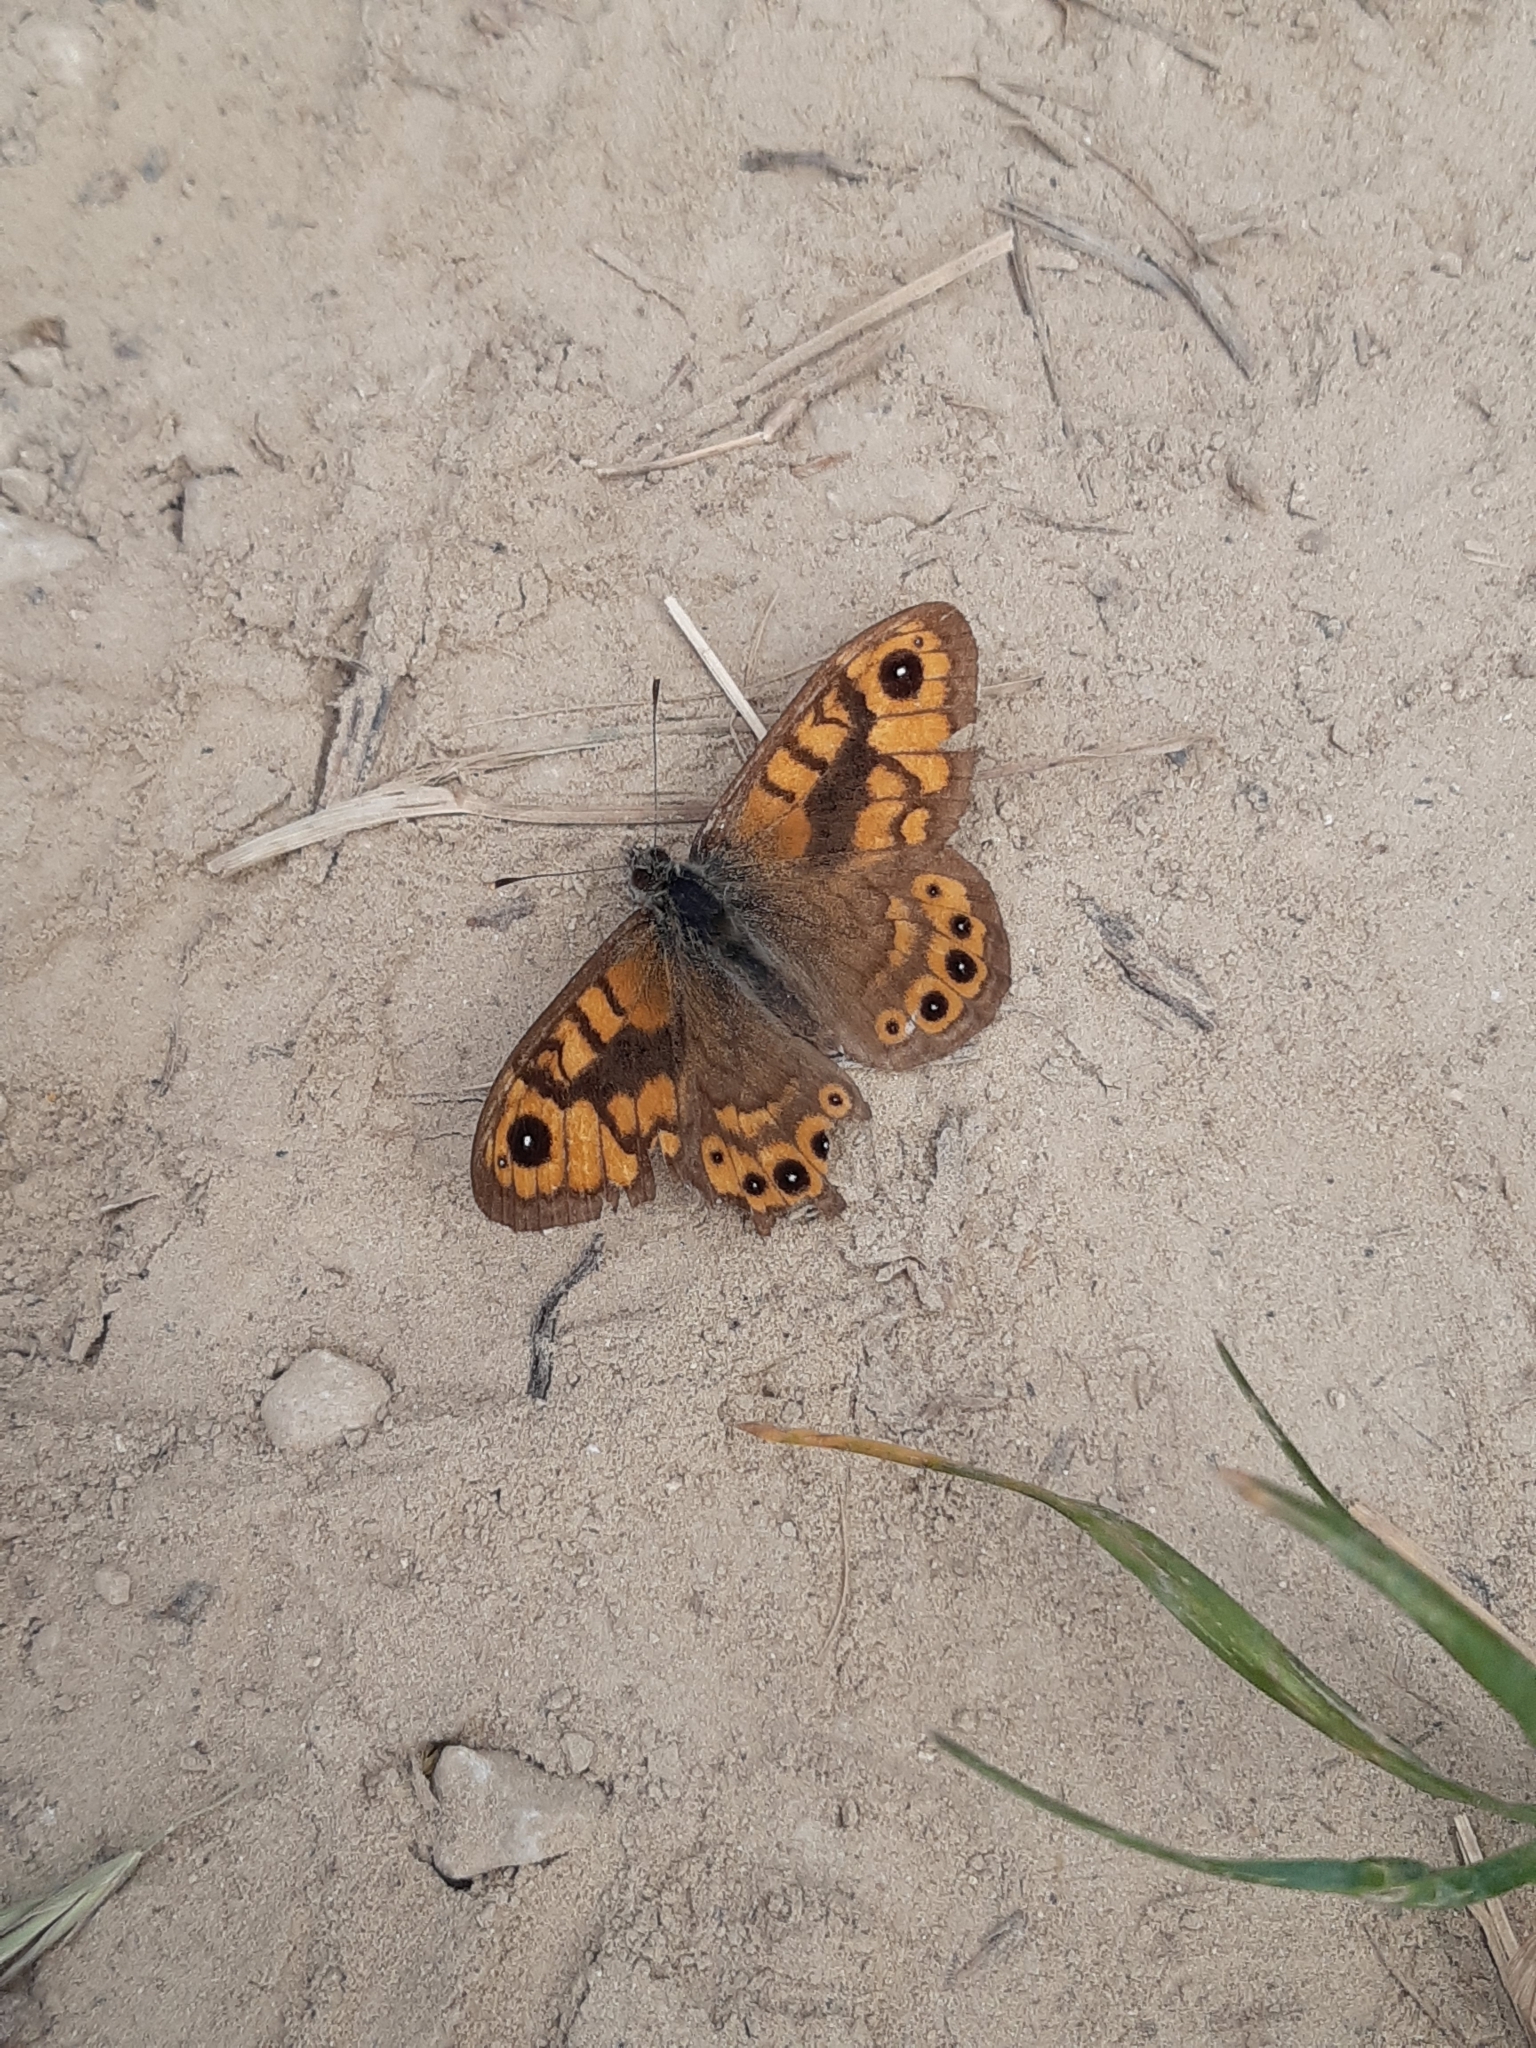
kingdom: Animalia
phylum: Arthropoda
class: Insecta
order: Lepidoptera
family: Nymphalidae
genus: Pararge
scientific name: Pararge Lasiommata megera
